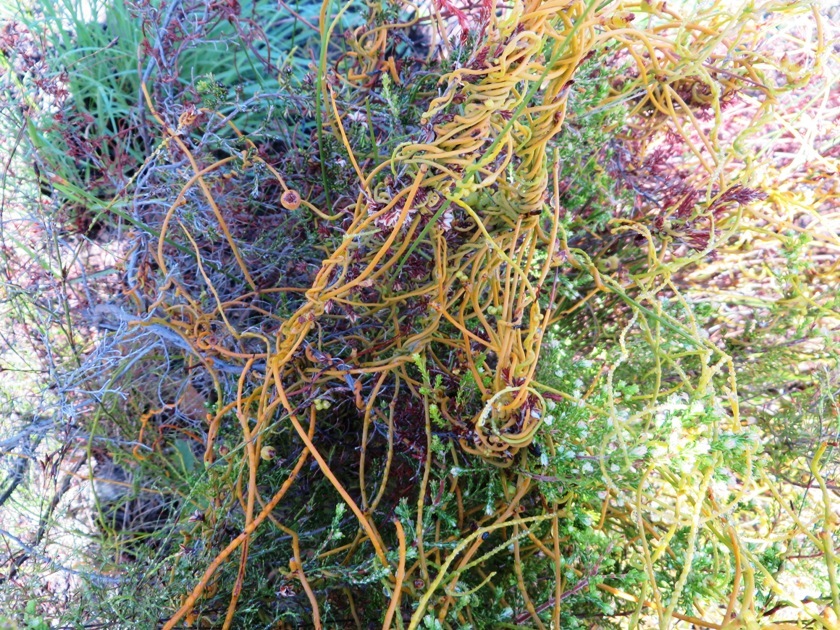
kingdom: Plantae
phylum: Tracheophyta
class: Magnoliopsida
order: Laurales
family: Lauraceae
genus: Cassytha
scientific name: Cassytha ciliolata
